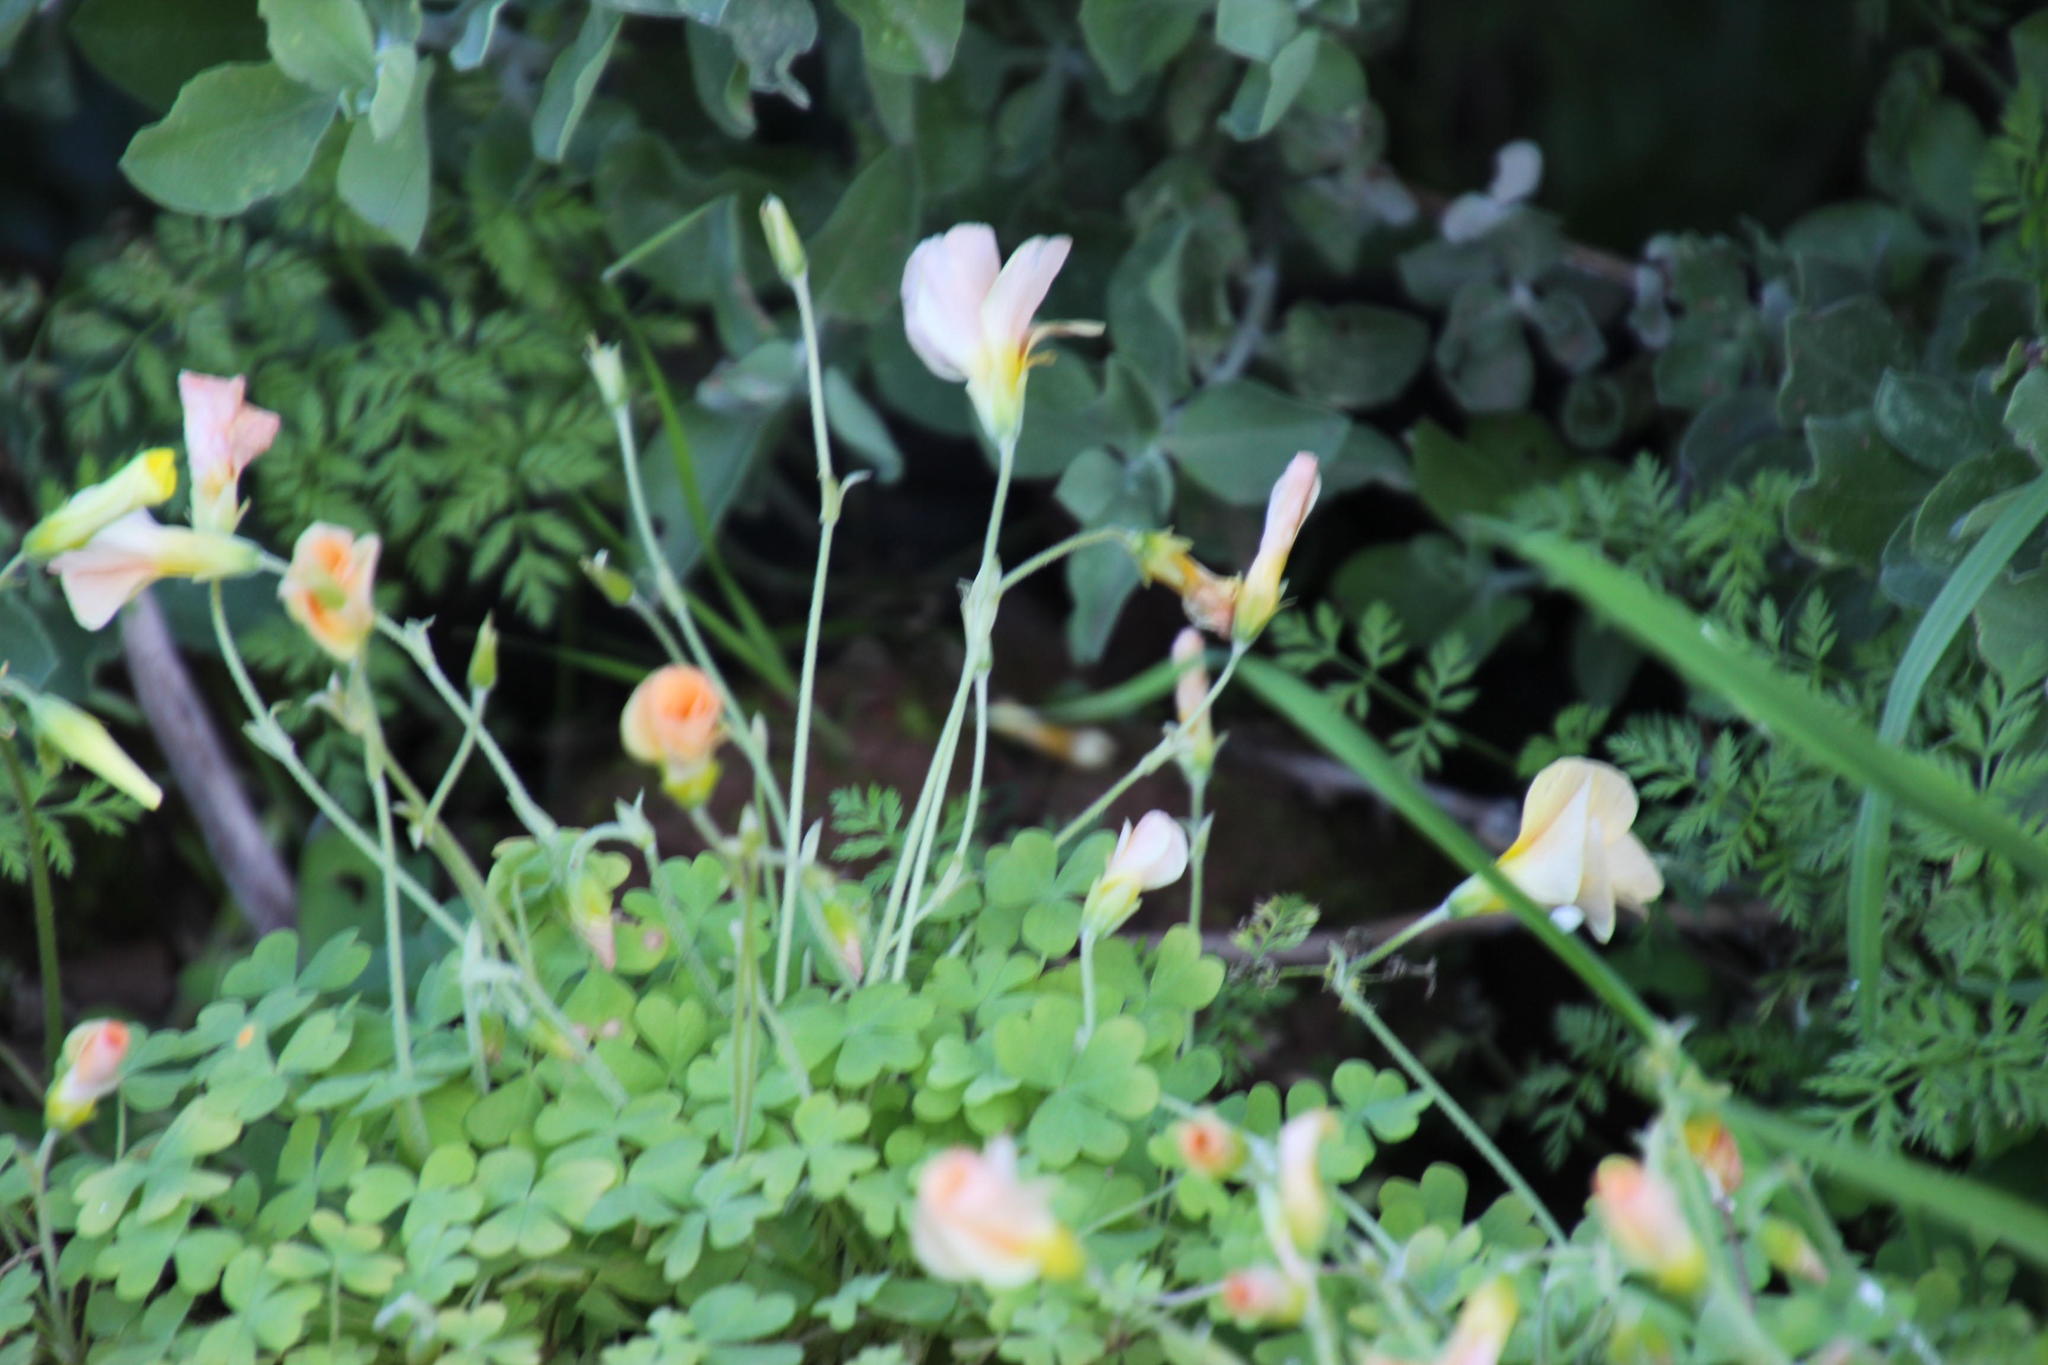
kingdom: Plantae
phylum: Tracheophyta
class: Magnoliopsida
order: Oxalidales
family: Oxalidaceae
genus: Oxalis
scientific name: Oxalis obtusa
